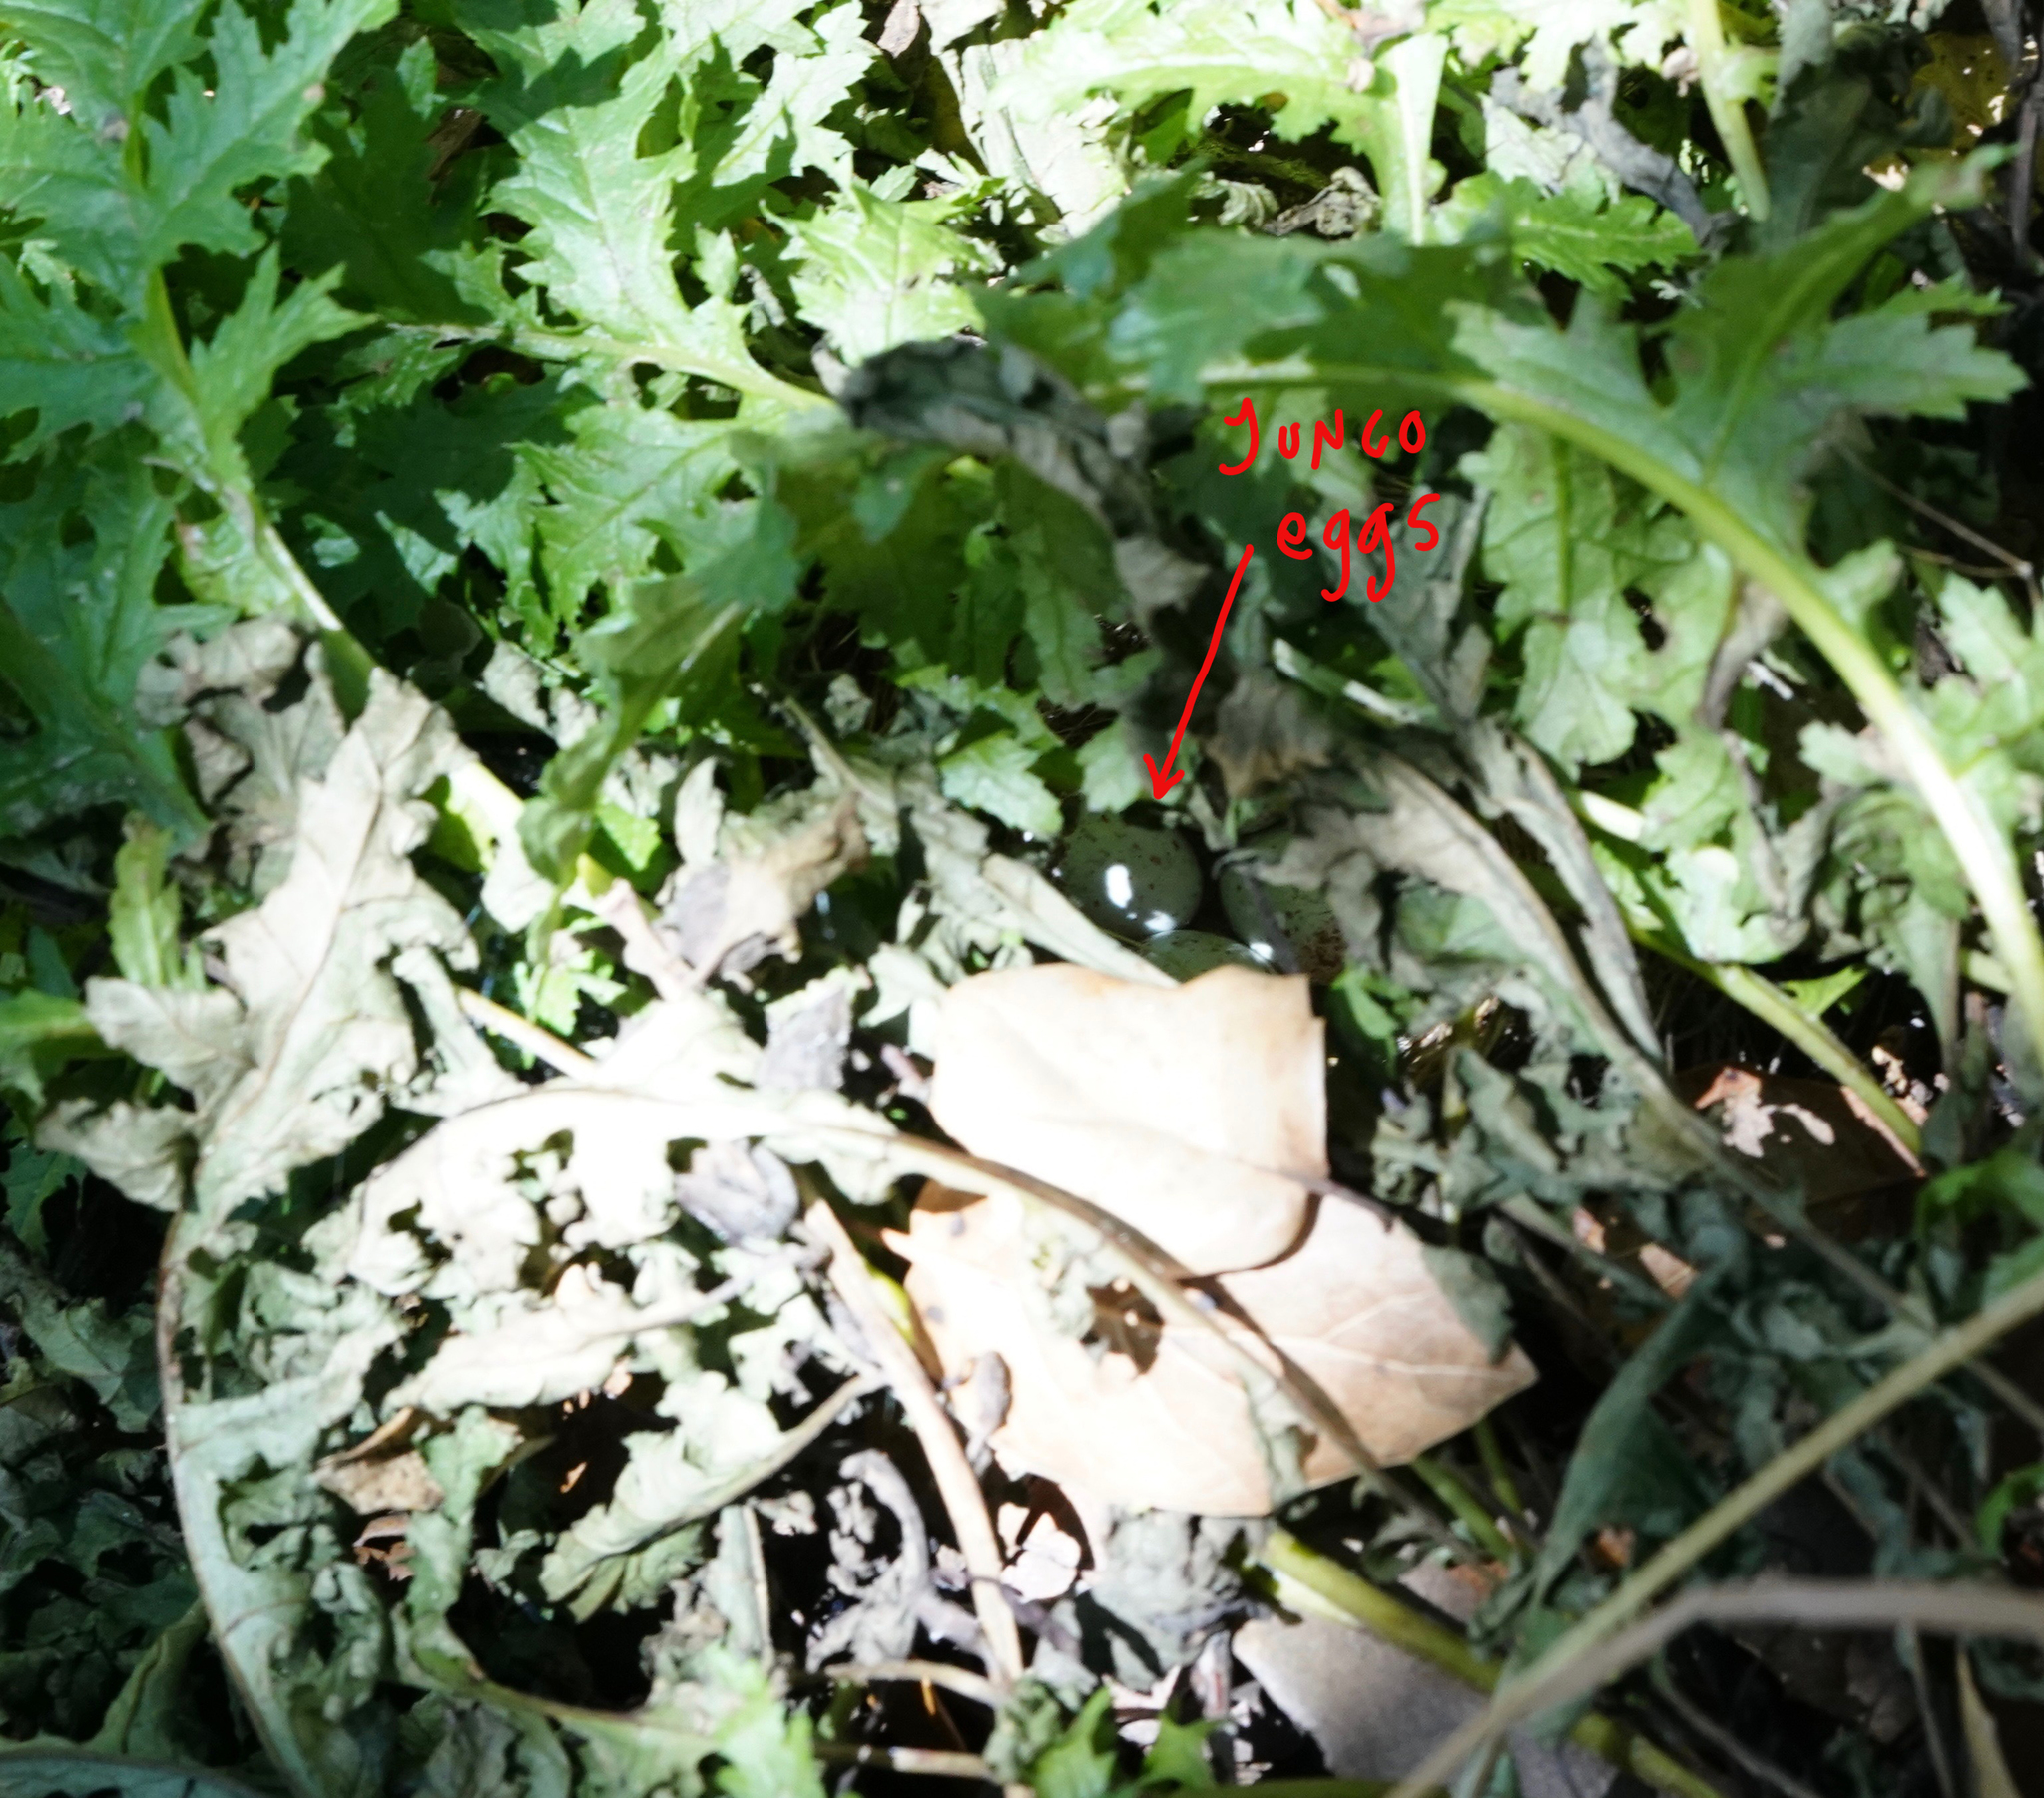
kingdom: Animalia
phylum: Chordata
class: Aves
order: Passeriformes
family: Passerellidae
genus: Junco
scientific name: Junco hyemalis
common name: Dark-eyed junco
